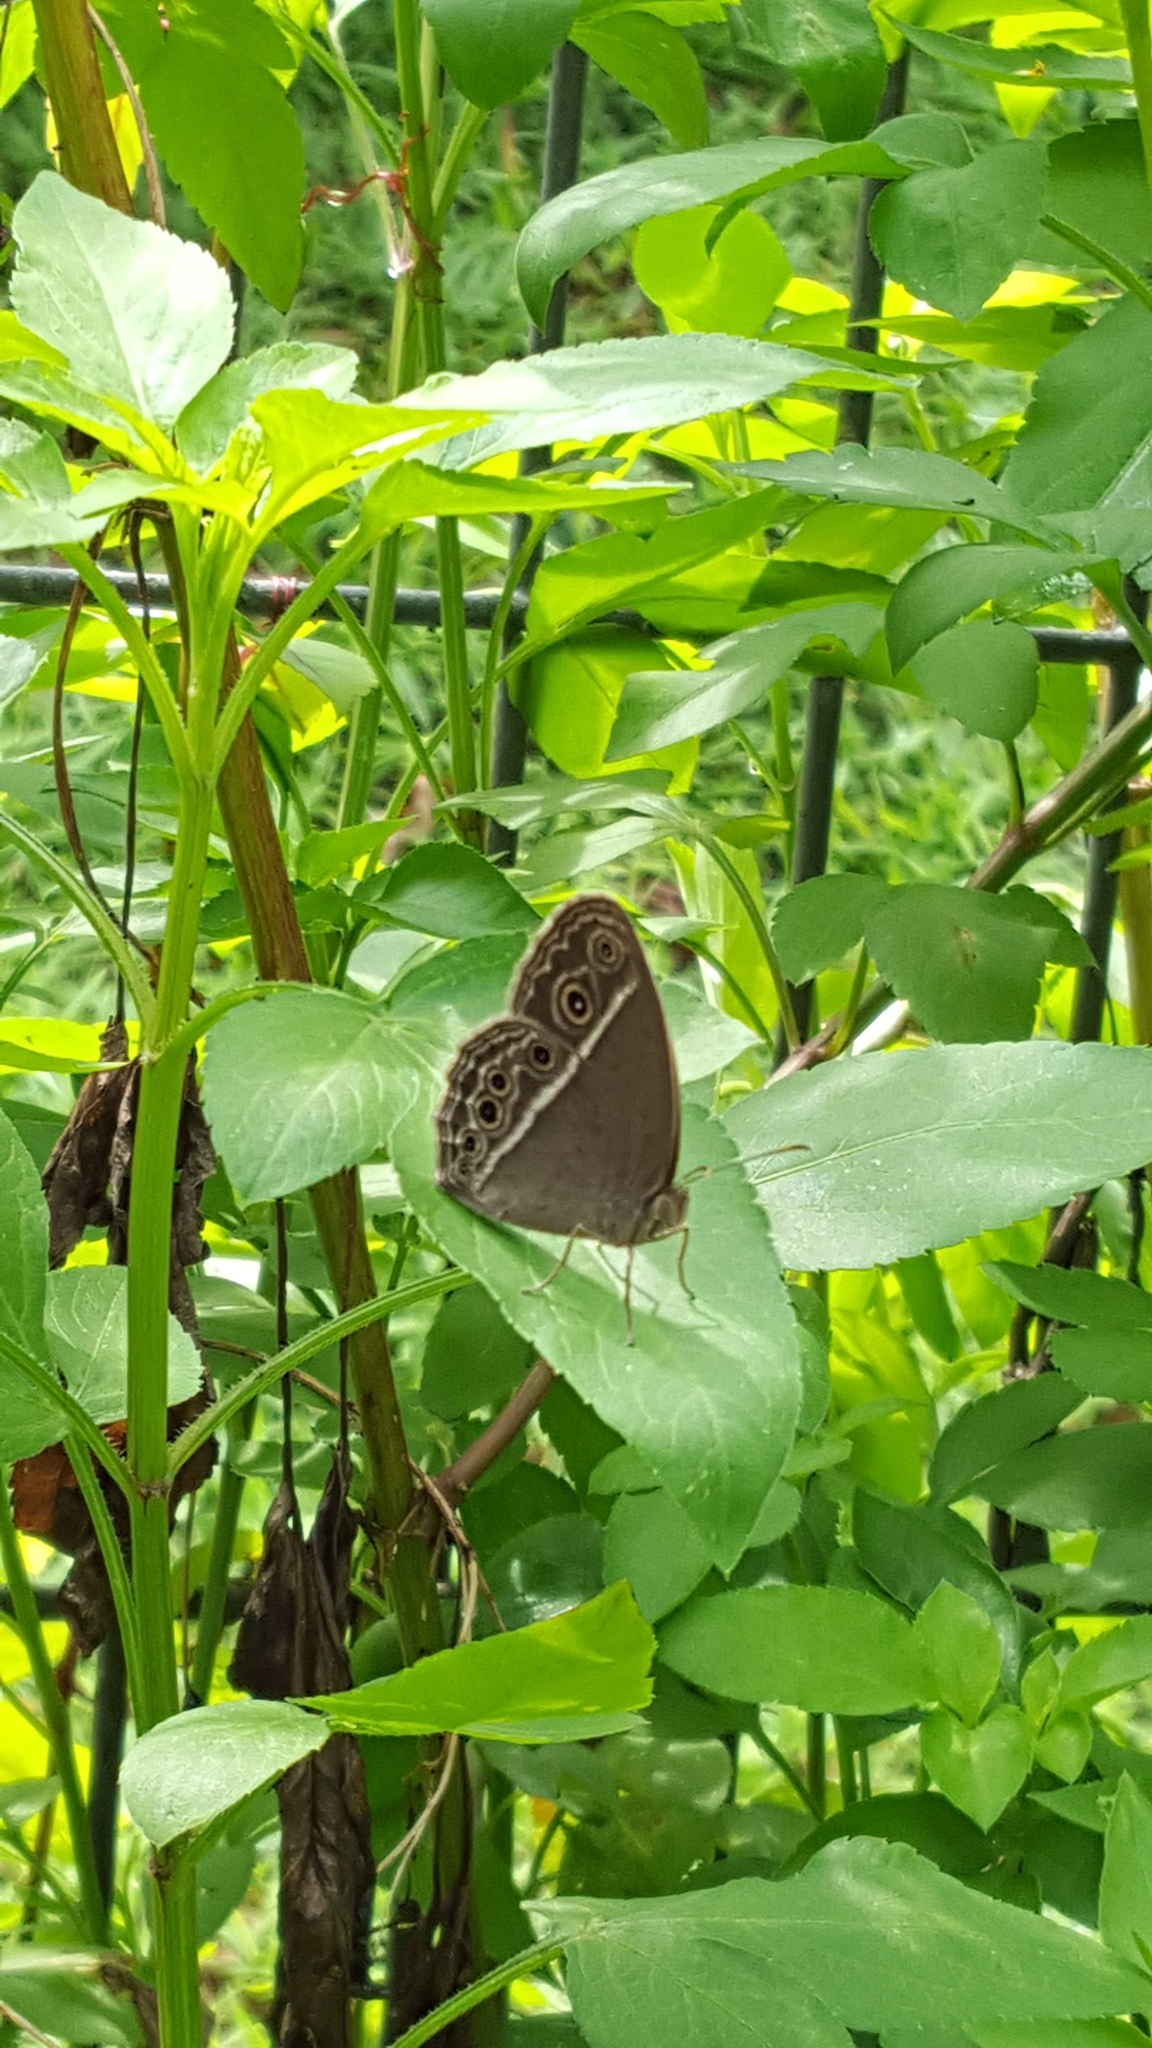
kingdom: Animalia
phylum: Arthropoda
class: Insecta
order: Lepidoptera
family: Nymphalidae
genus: Mycalesis
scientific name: Mycalesis mineus
